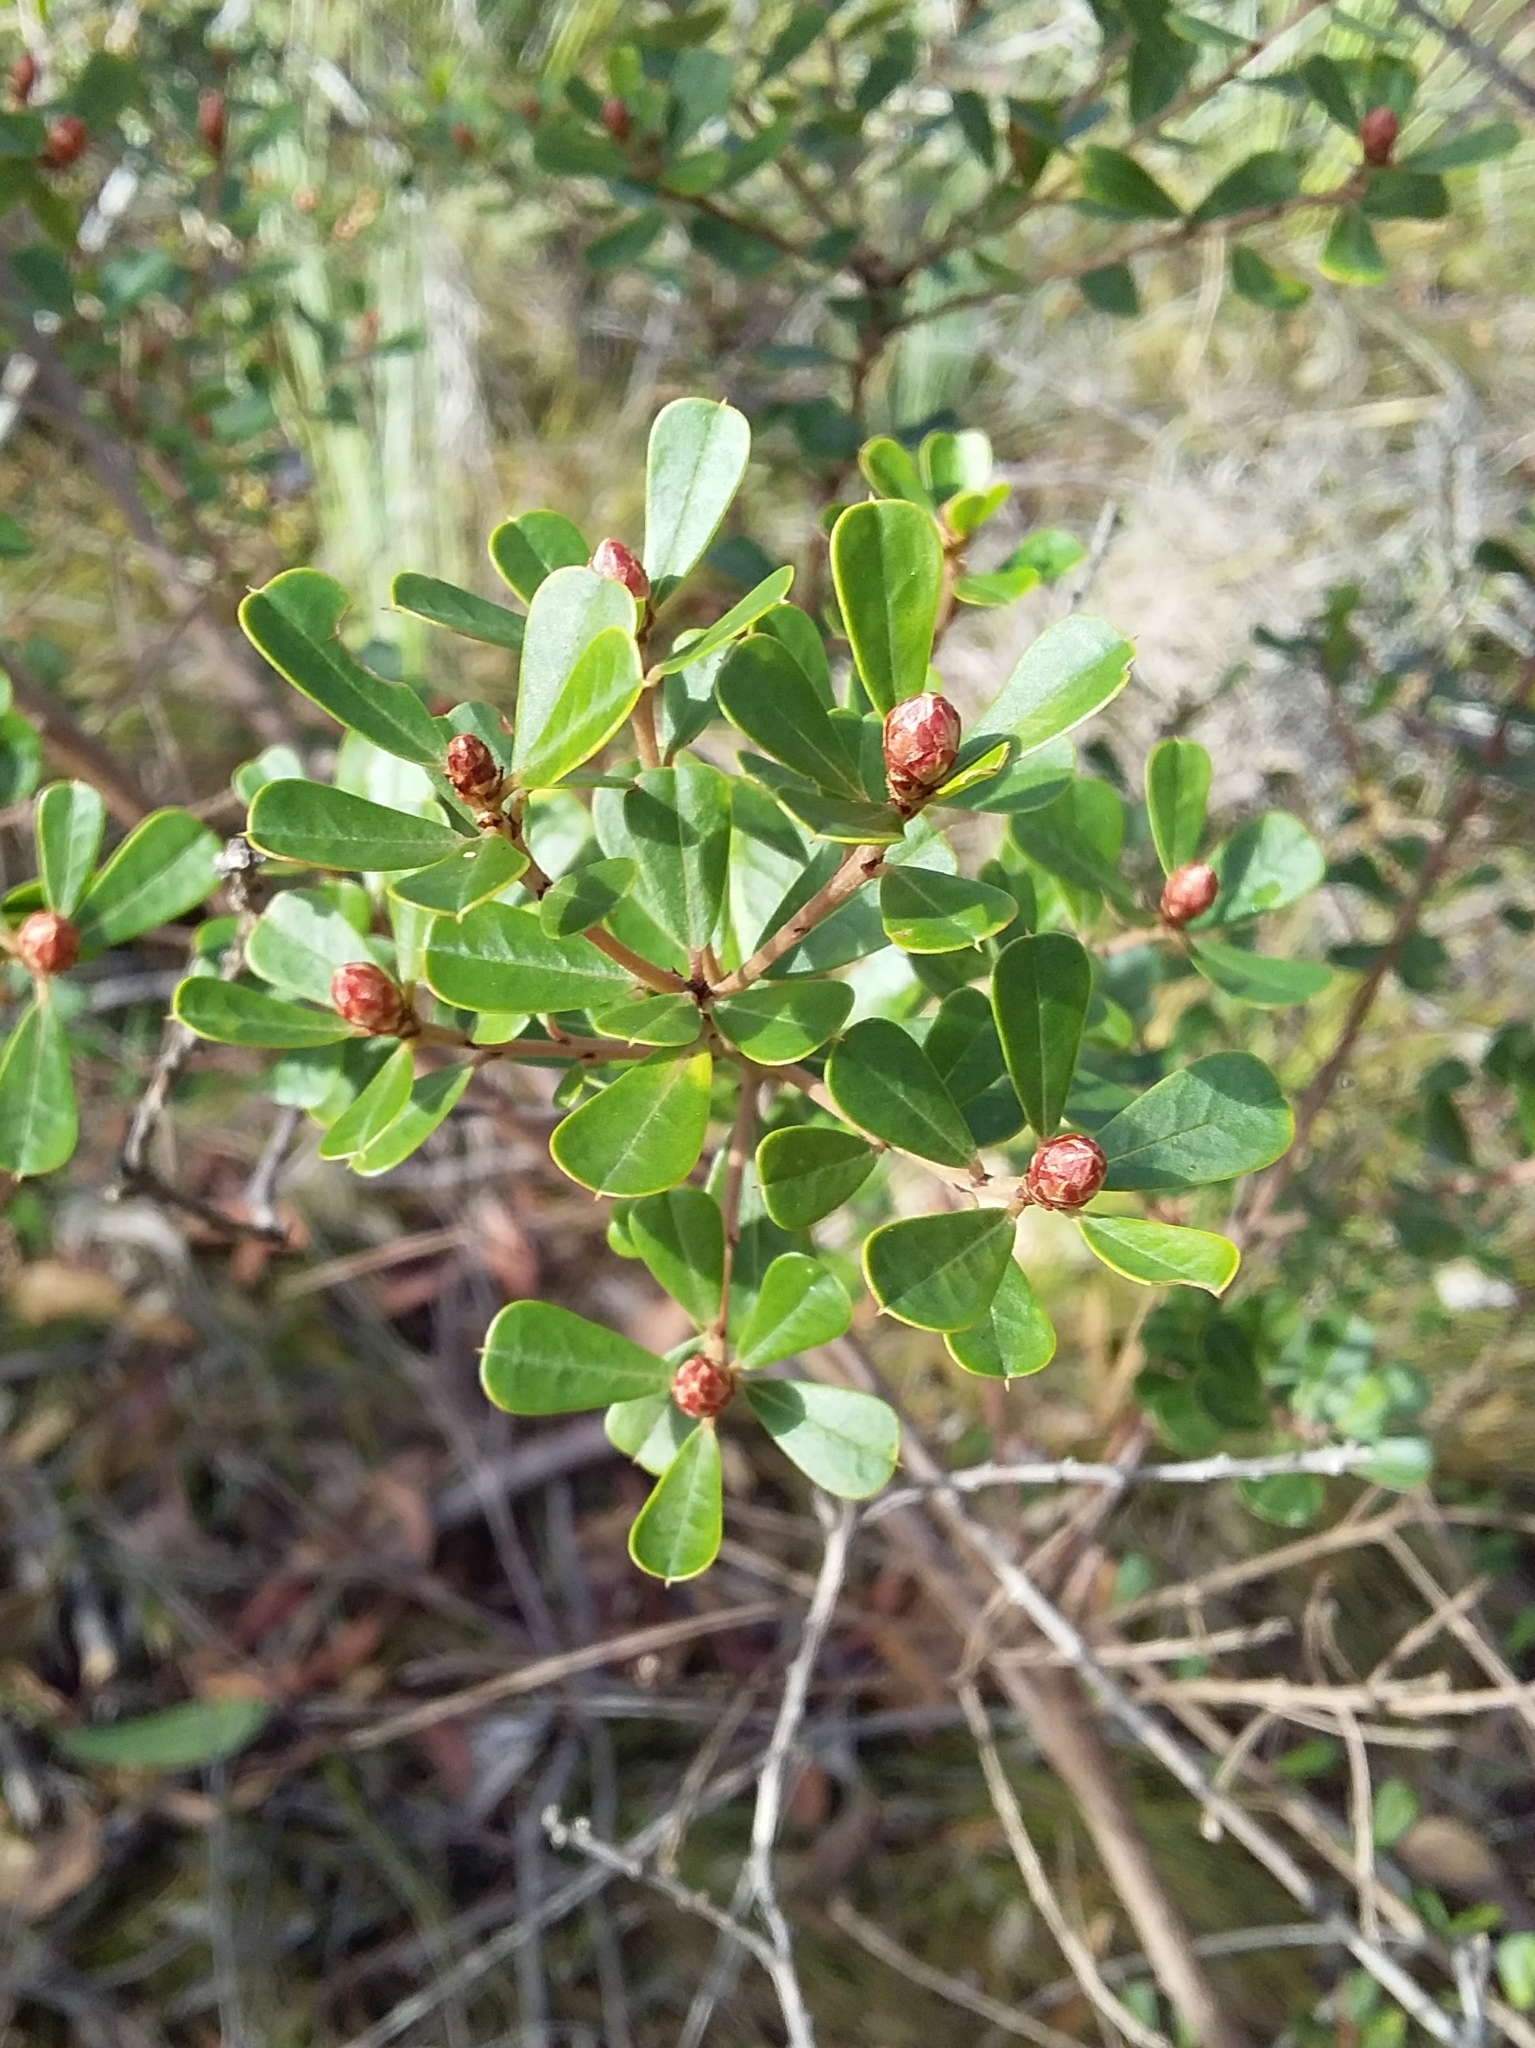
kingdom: Plantae
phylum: Tracheophyta
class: Magnoliopsida
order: Fabales
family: Fabaceae
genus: Pultenaea
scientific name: Pultenaea daphnoides
